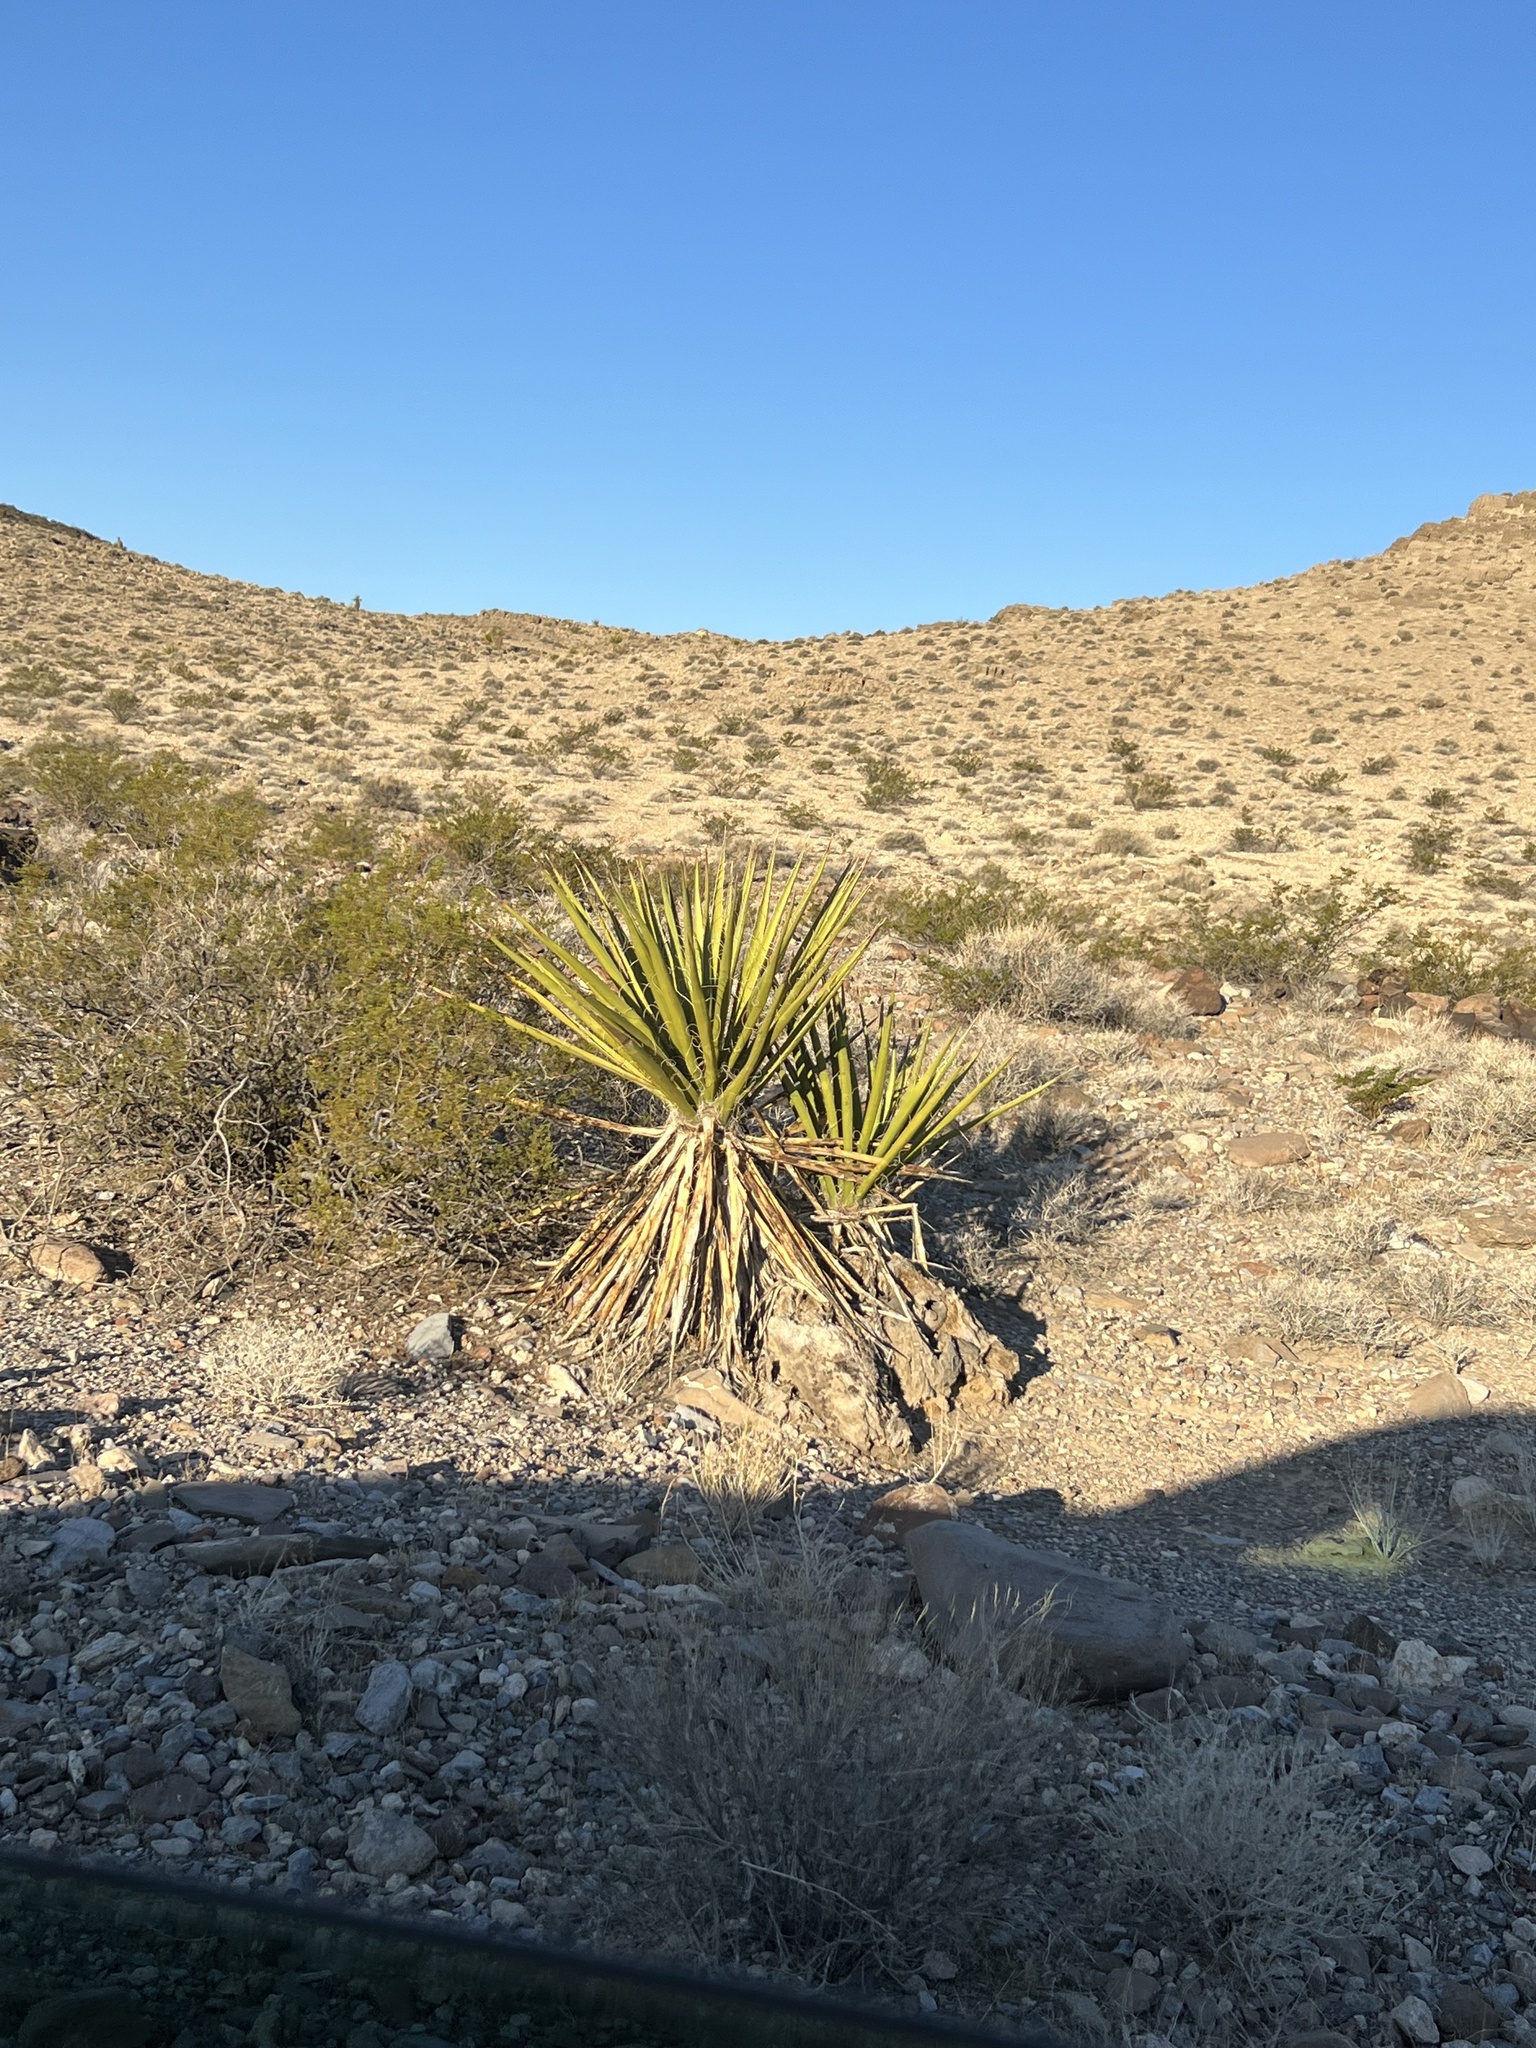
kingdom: Plantae
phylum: Tracheophyta
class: Liliopsida
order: Asparagales
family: Asparagaceae
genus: Yucca
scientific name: Yucca schidigera
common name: Mojave yucca
